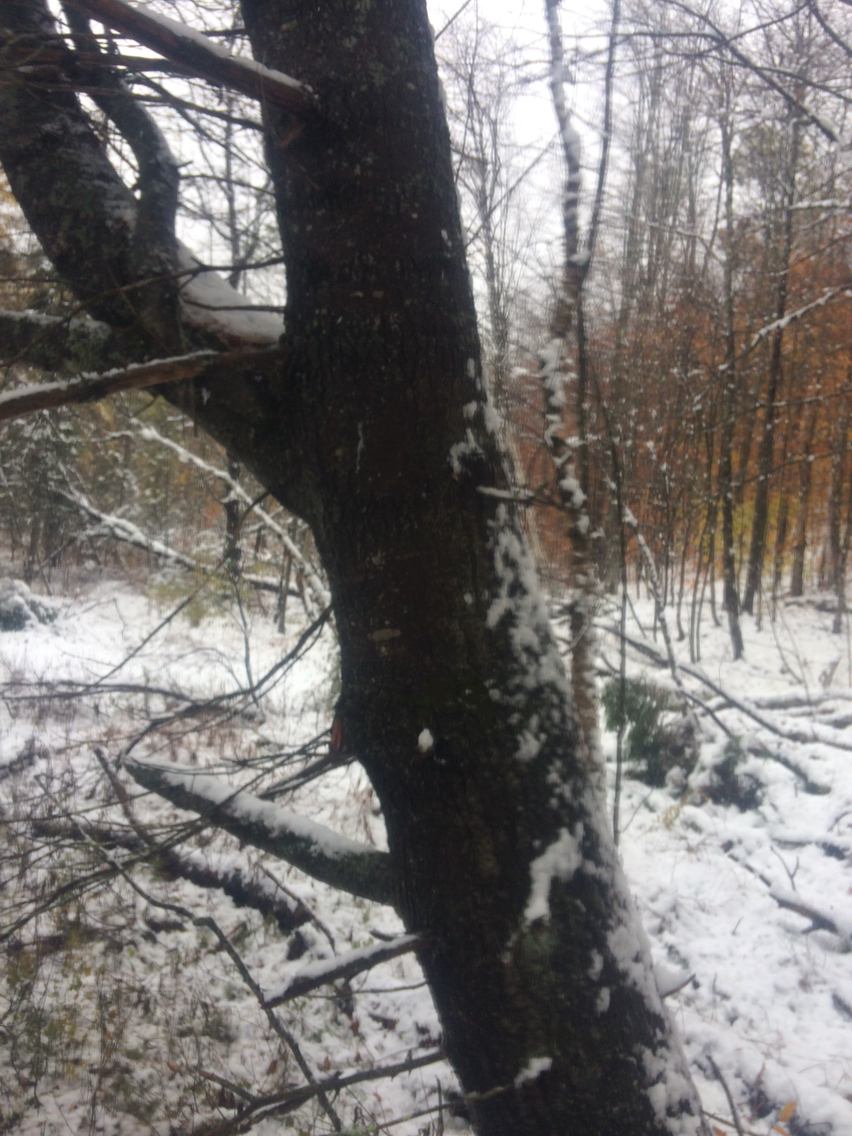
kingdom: Plantae
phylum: Tracheophyta
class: Pinopsida
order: Pinales
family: Pinaceae
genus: Pinus
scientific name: Pinus strobus
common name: Weymouth pine
